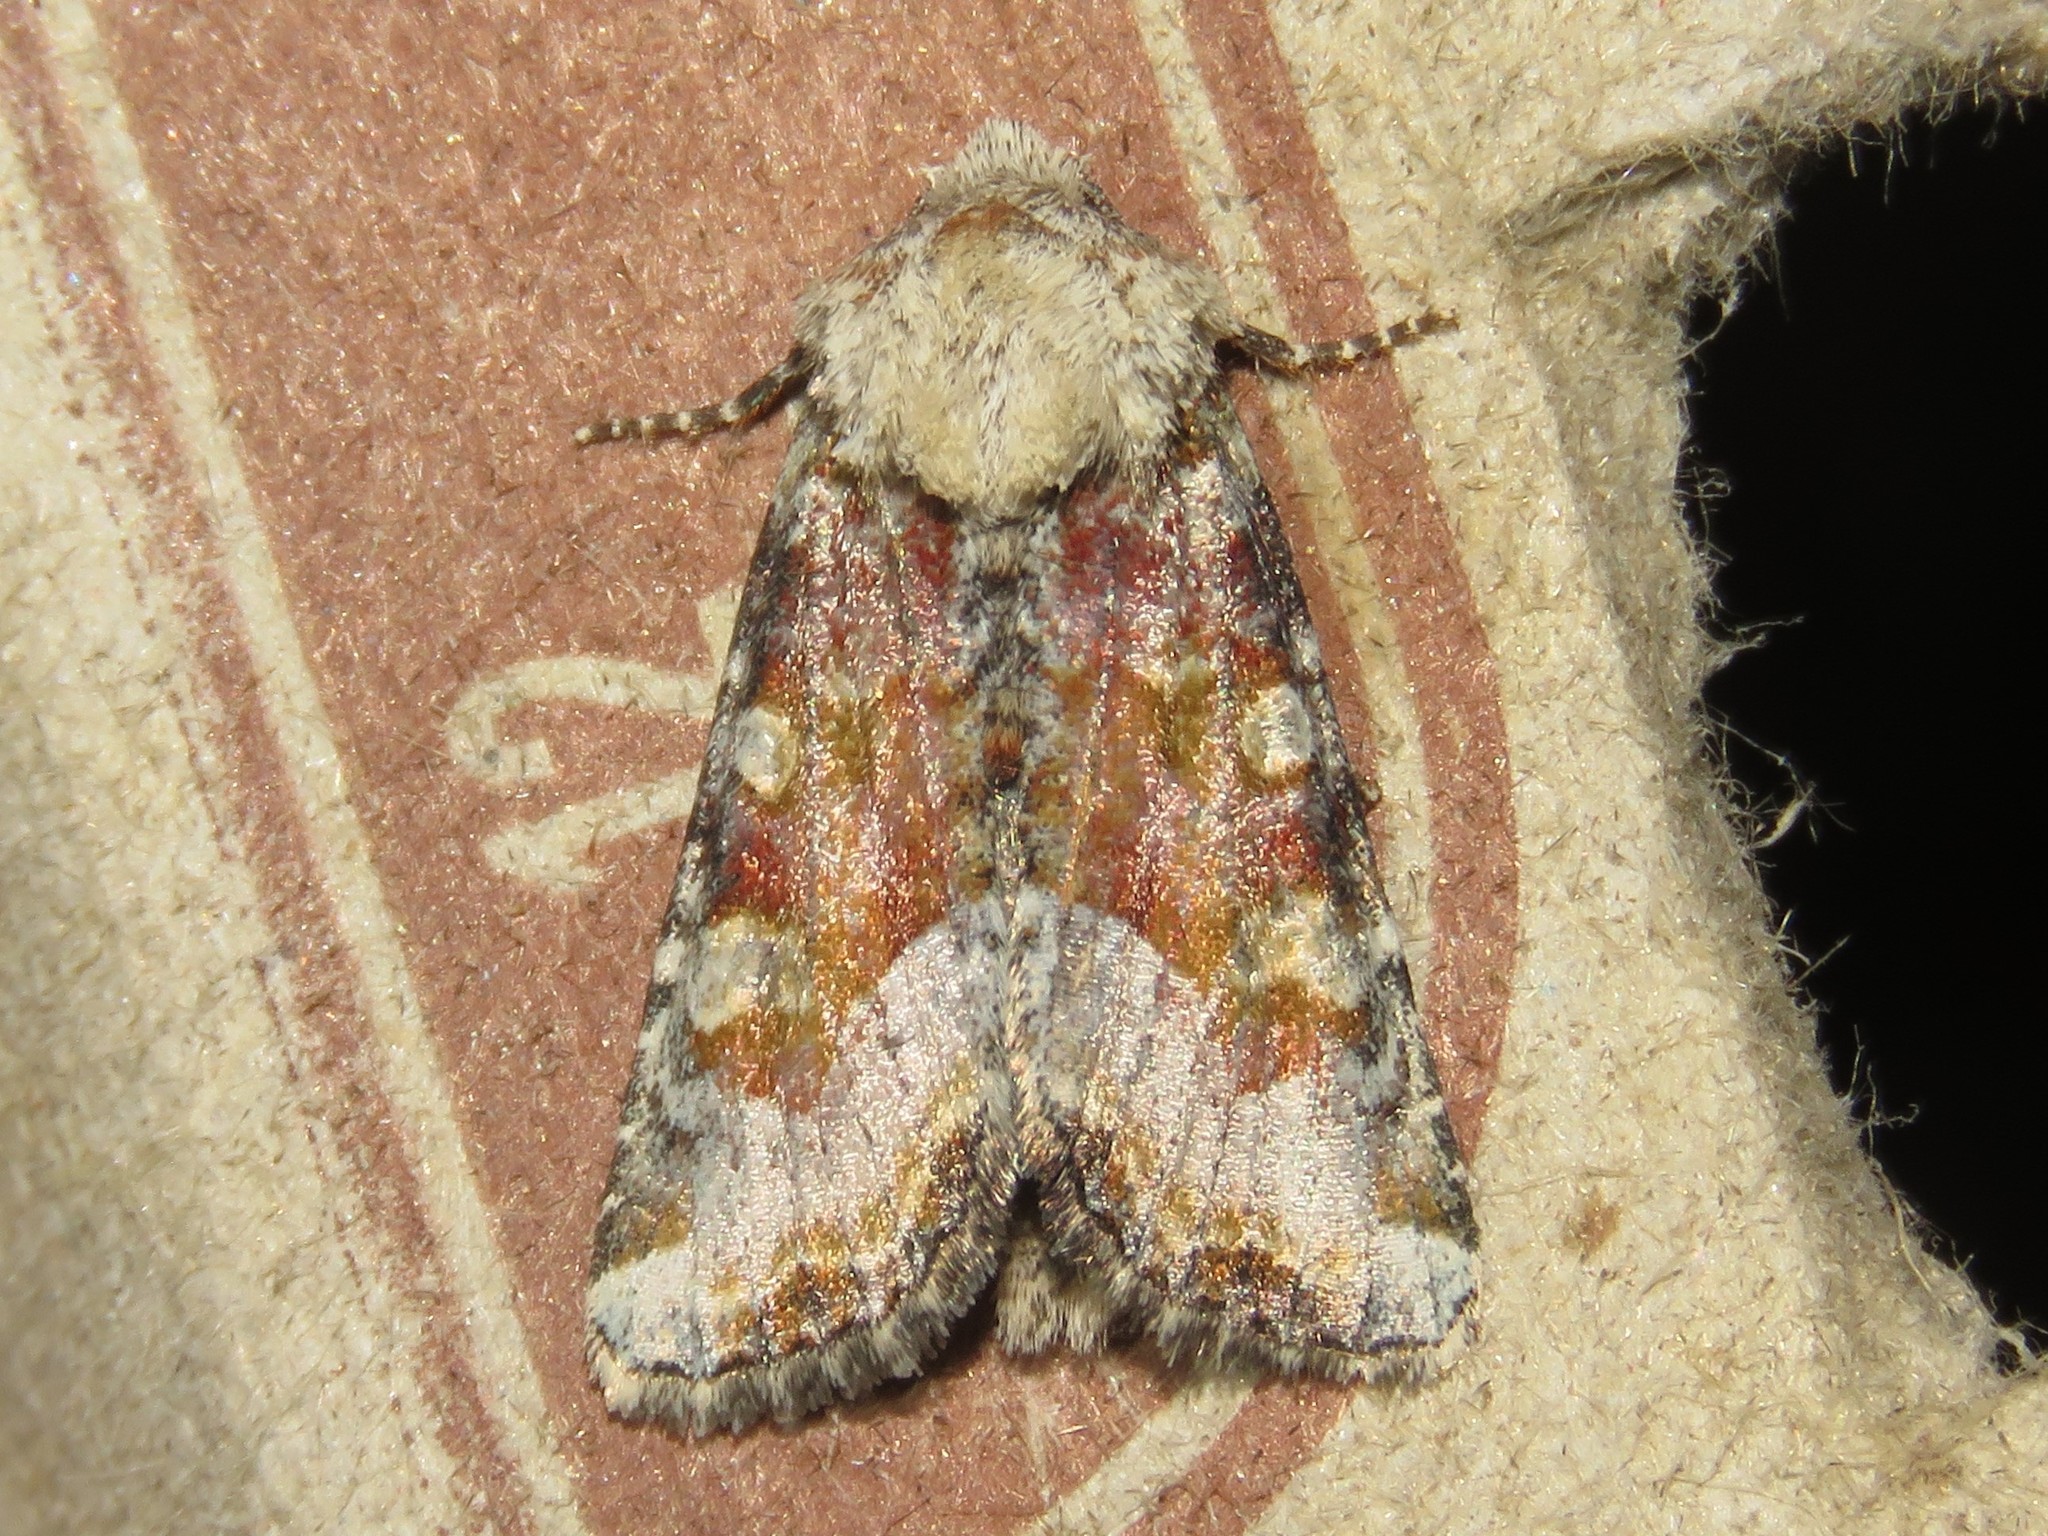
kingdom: Animalia
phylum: Arthropoda
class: Insecta
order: Lepidoptera
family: Noctuidae
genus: Oligia
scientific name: Oligia bridghamii
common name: Bridgham's brocade moth
